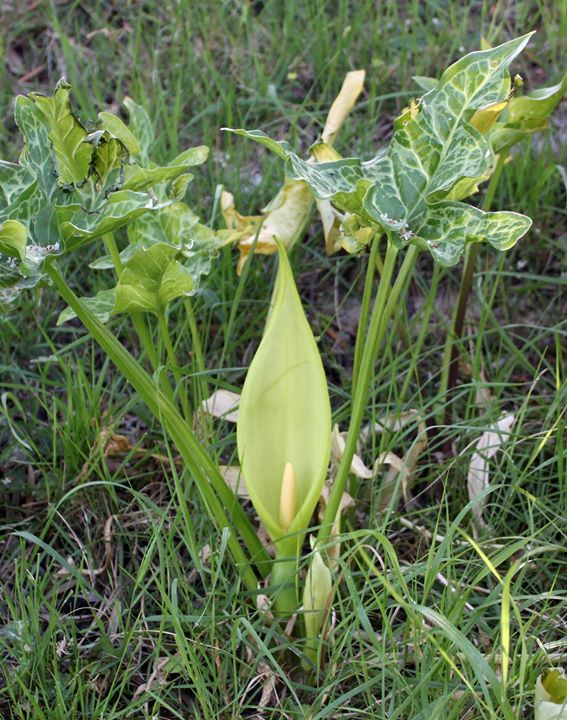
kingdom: Plantae
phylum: Tracheophyta
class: Liliopsida
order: Alismatales
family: Araceae
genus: Arum
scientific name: Arum italicum
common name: Italian lords-and-ladies
